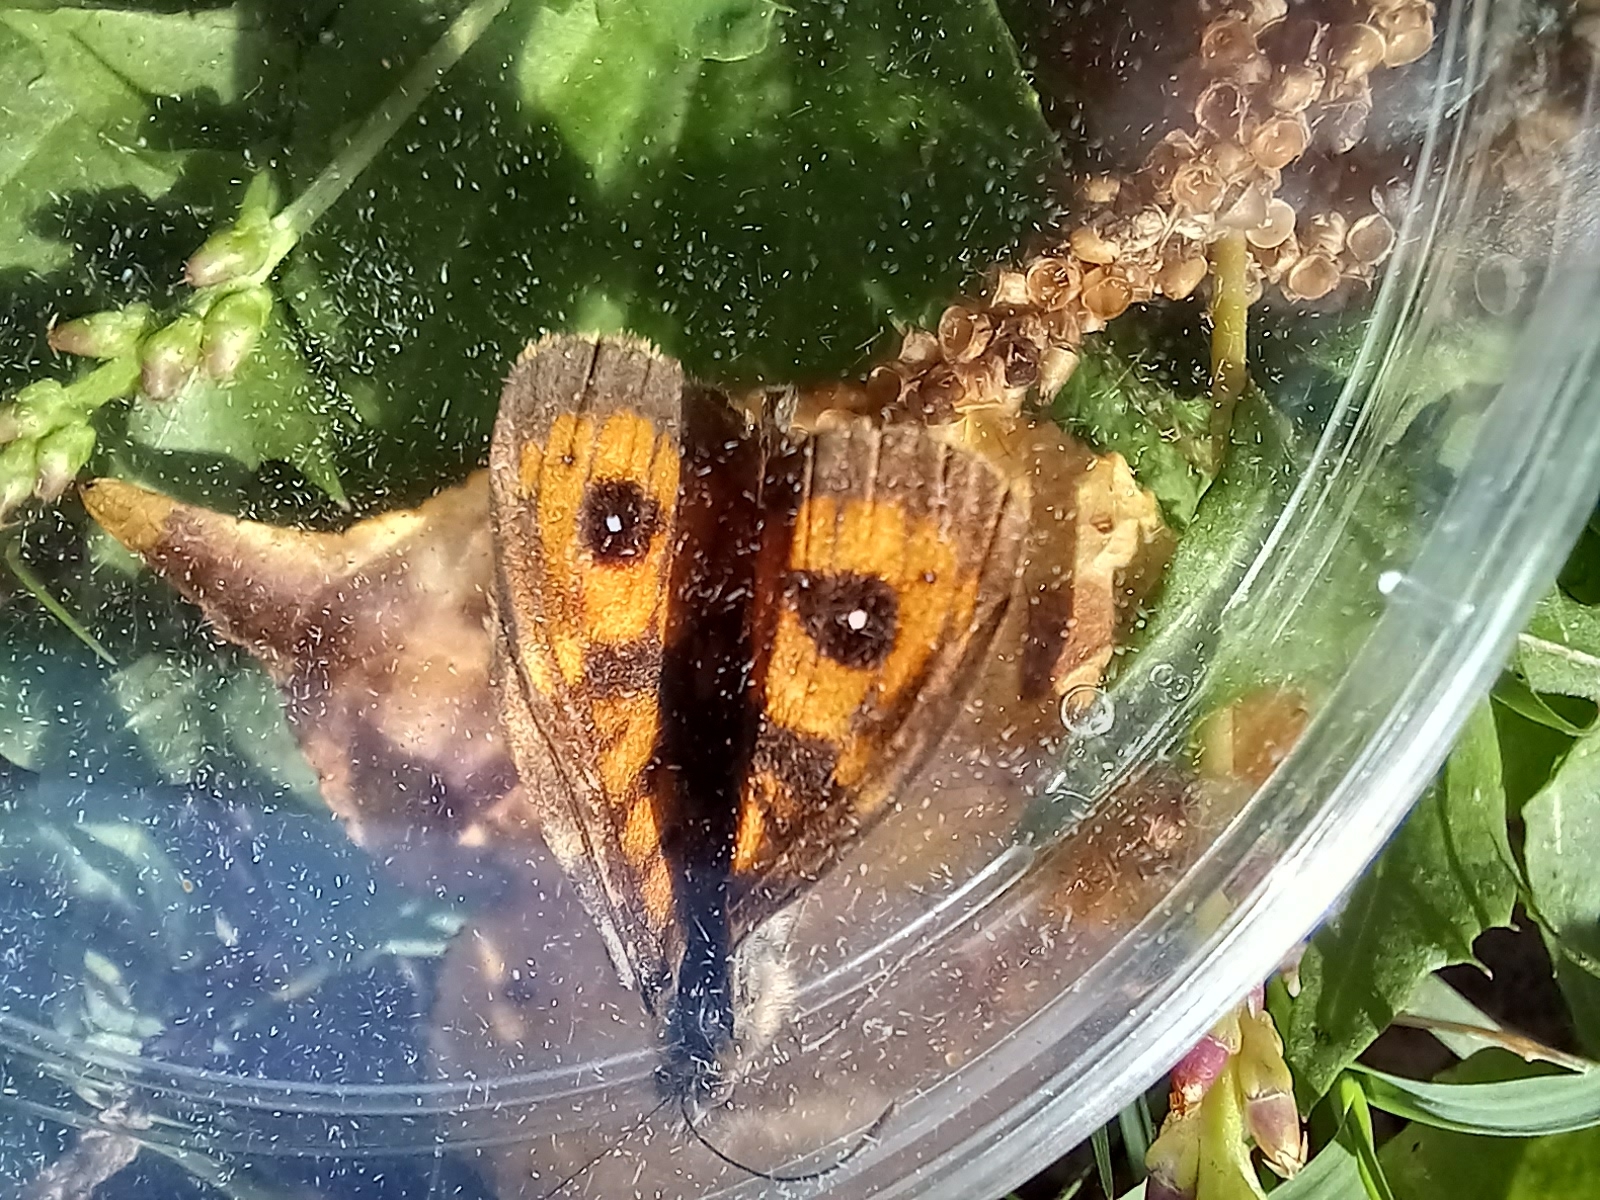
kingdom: Animalia
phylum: Arthropoda
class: Insecta
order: Lepidoptera
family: Nymphalidae
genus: Pararge
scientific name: Pararge Lasiommata megera
